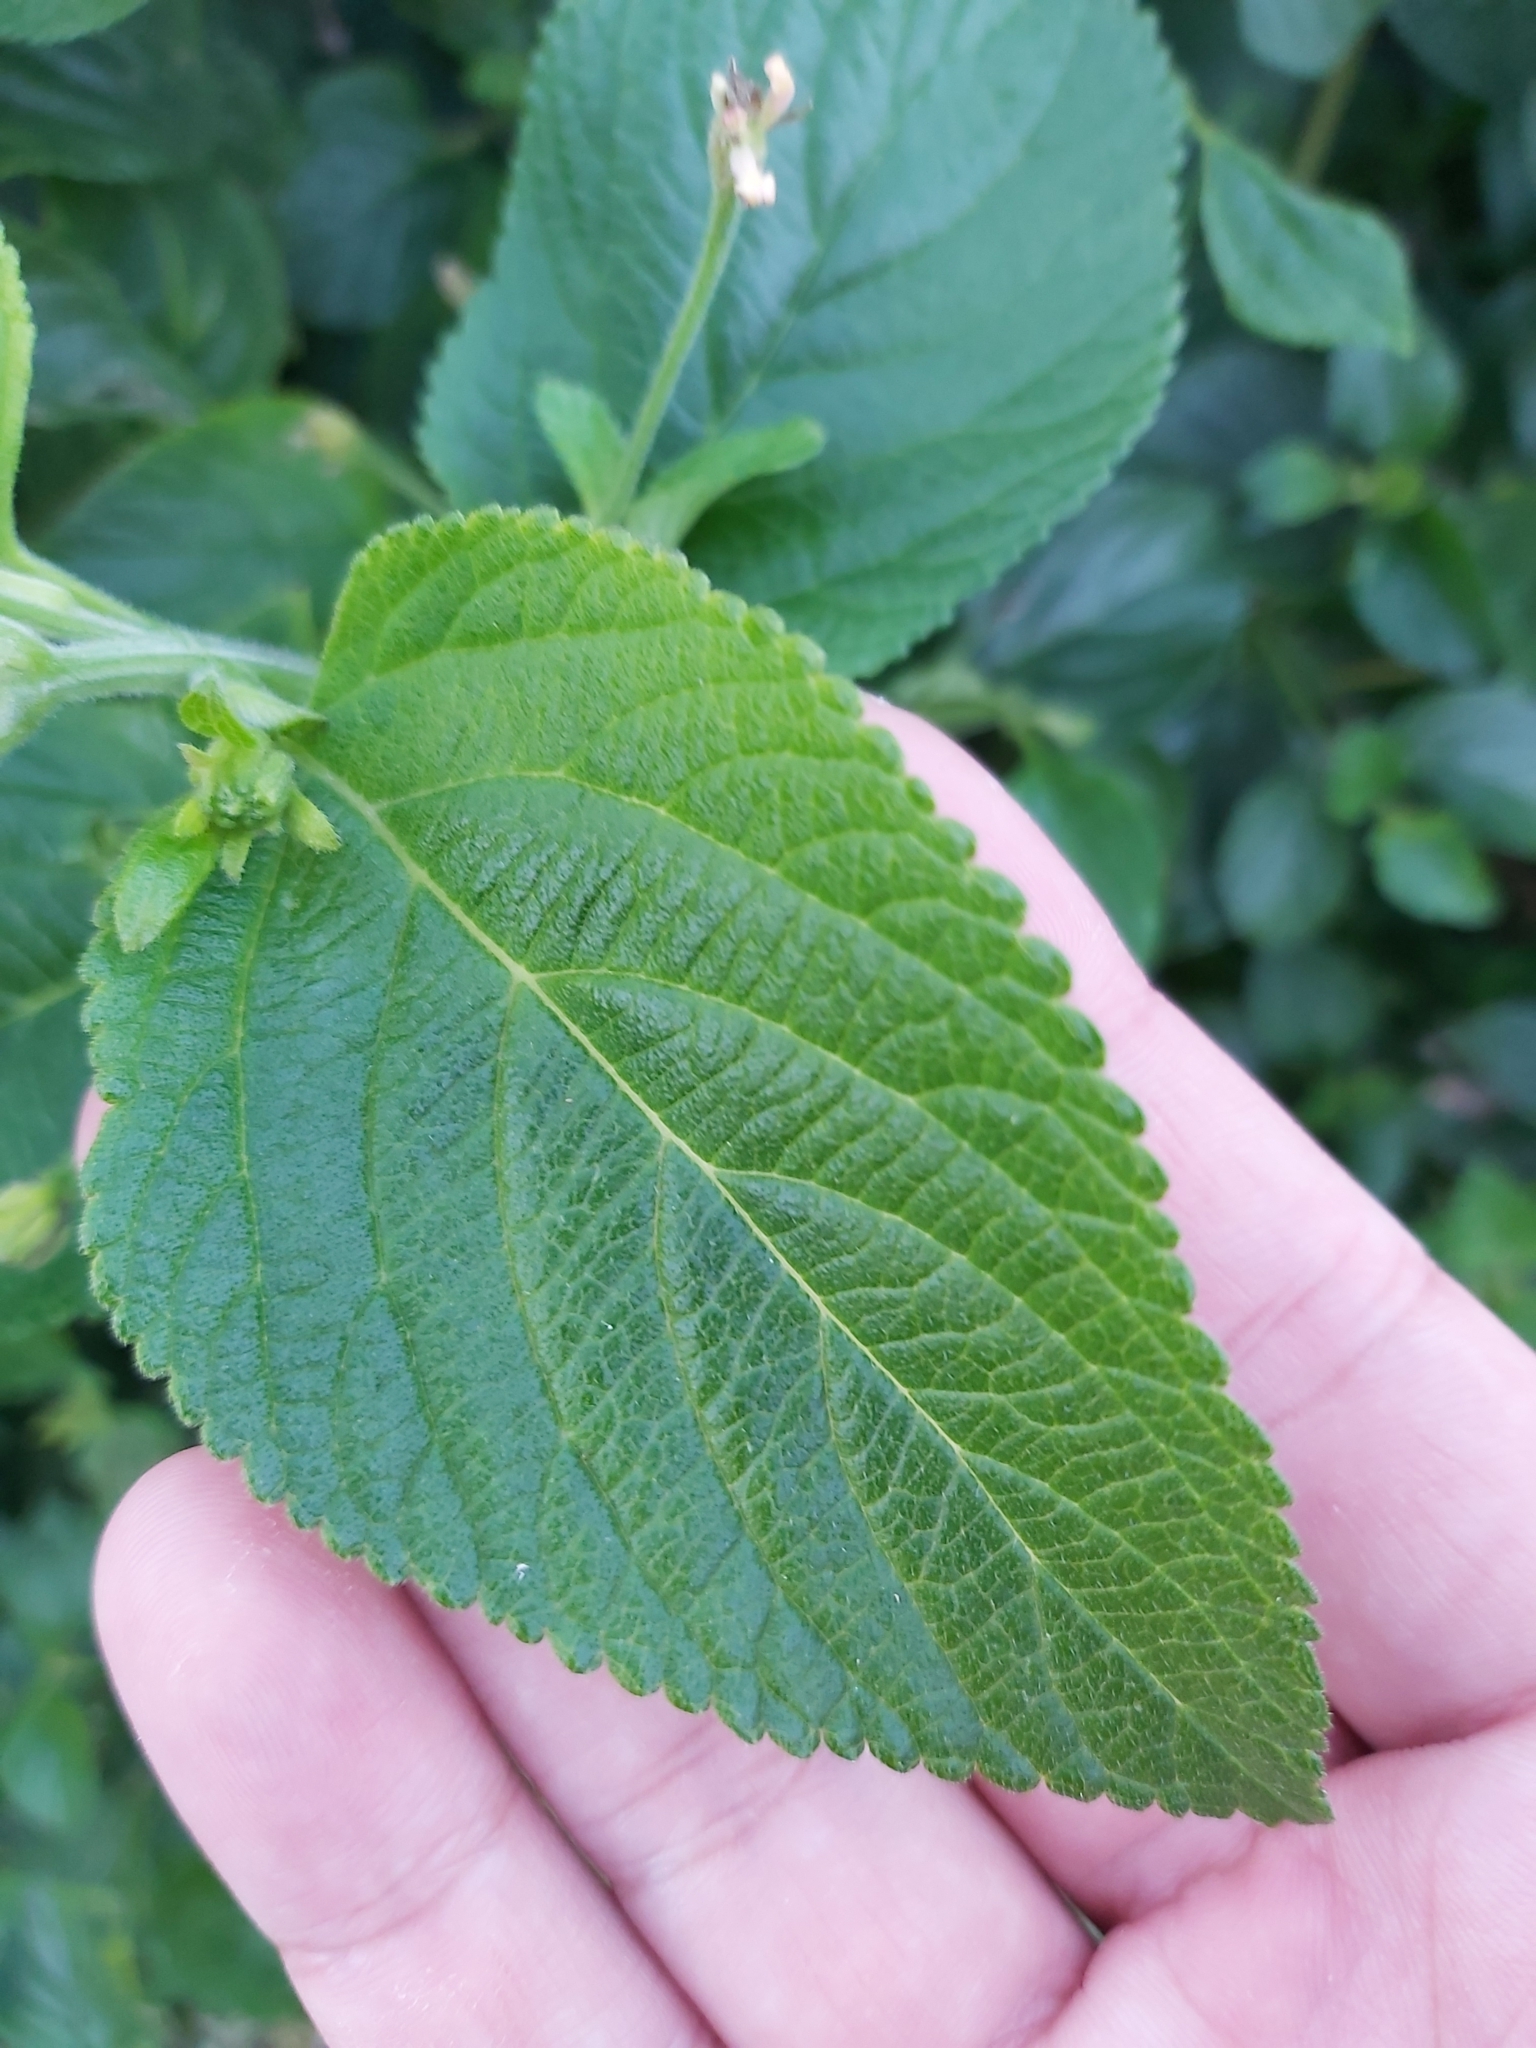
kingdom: Plantae
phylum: Tracheophyta
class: Magnoliopsida
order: Lamiales
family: Verbenaceae
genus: Lantana
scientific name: Lantana camara
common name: Lantana
